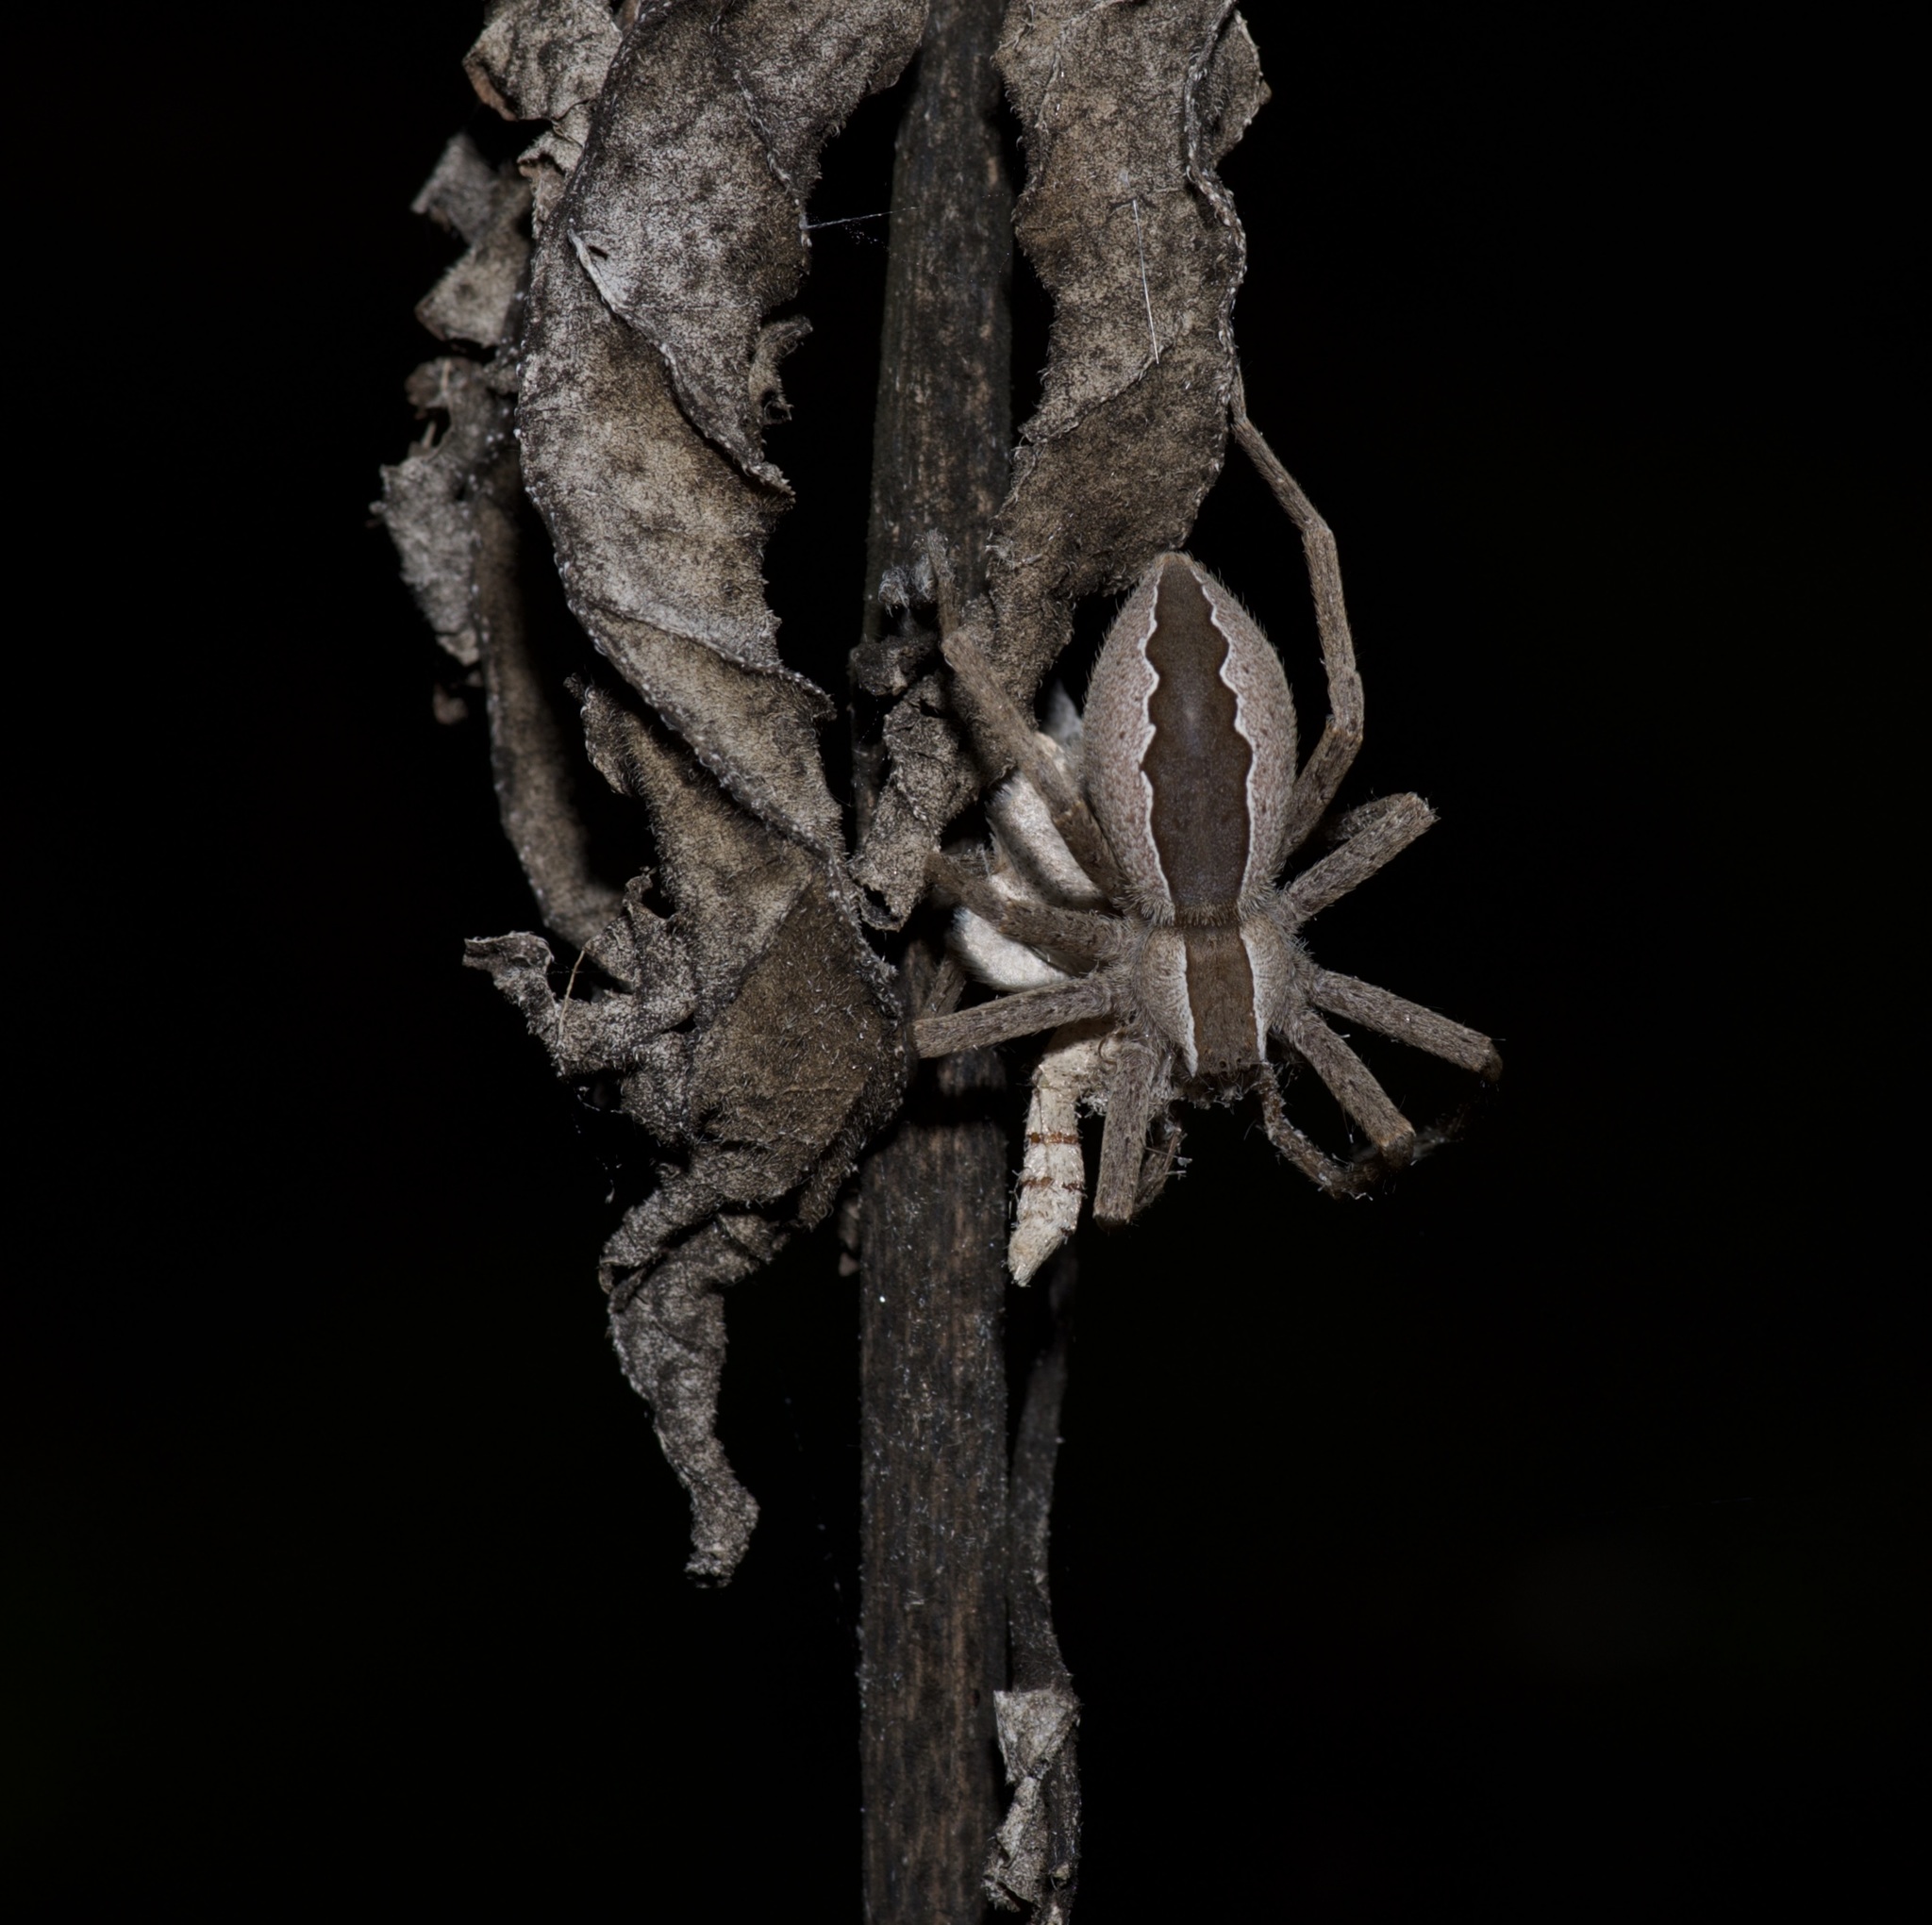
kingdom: Animalia
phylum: Arthropoda
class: Arachnida
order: Araneae
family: Pisauridae
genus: Pisaurina
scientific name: Pisaurina mira
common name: American nursery web spider
